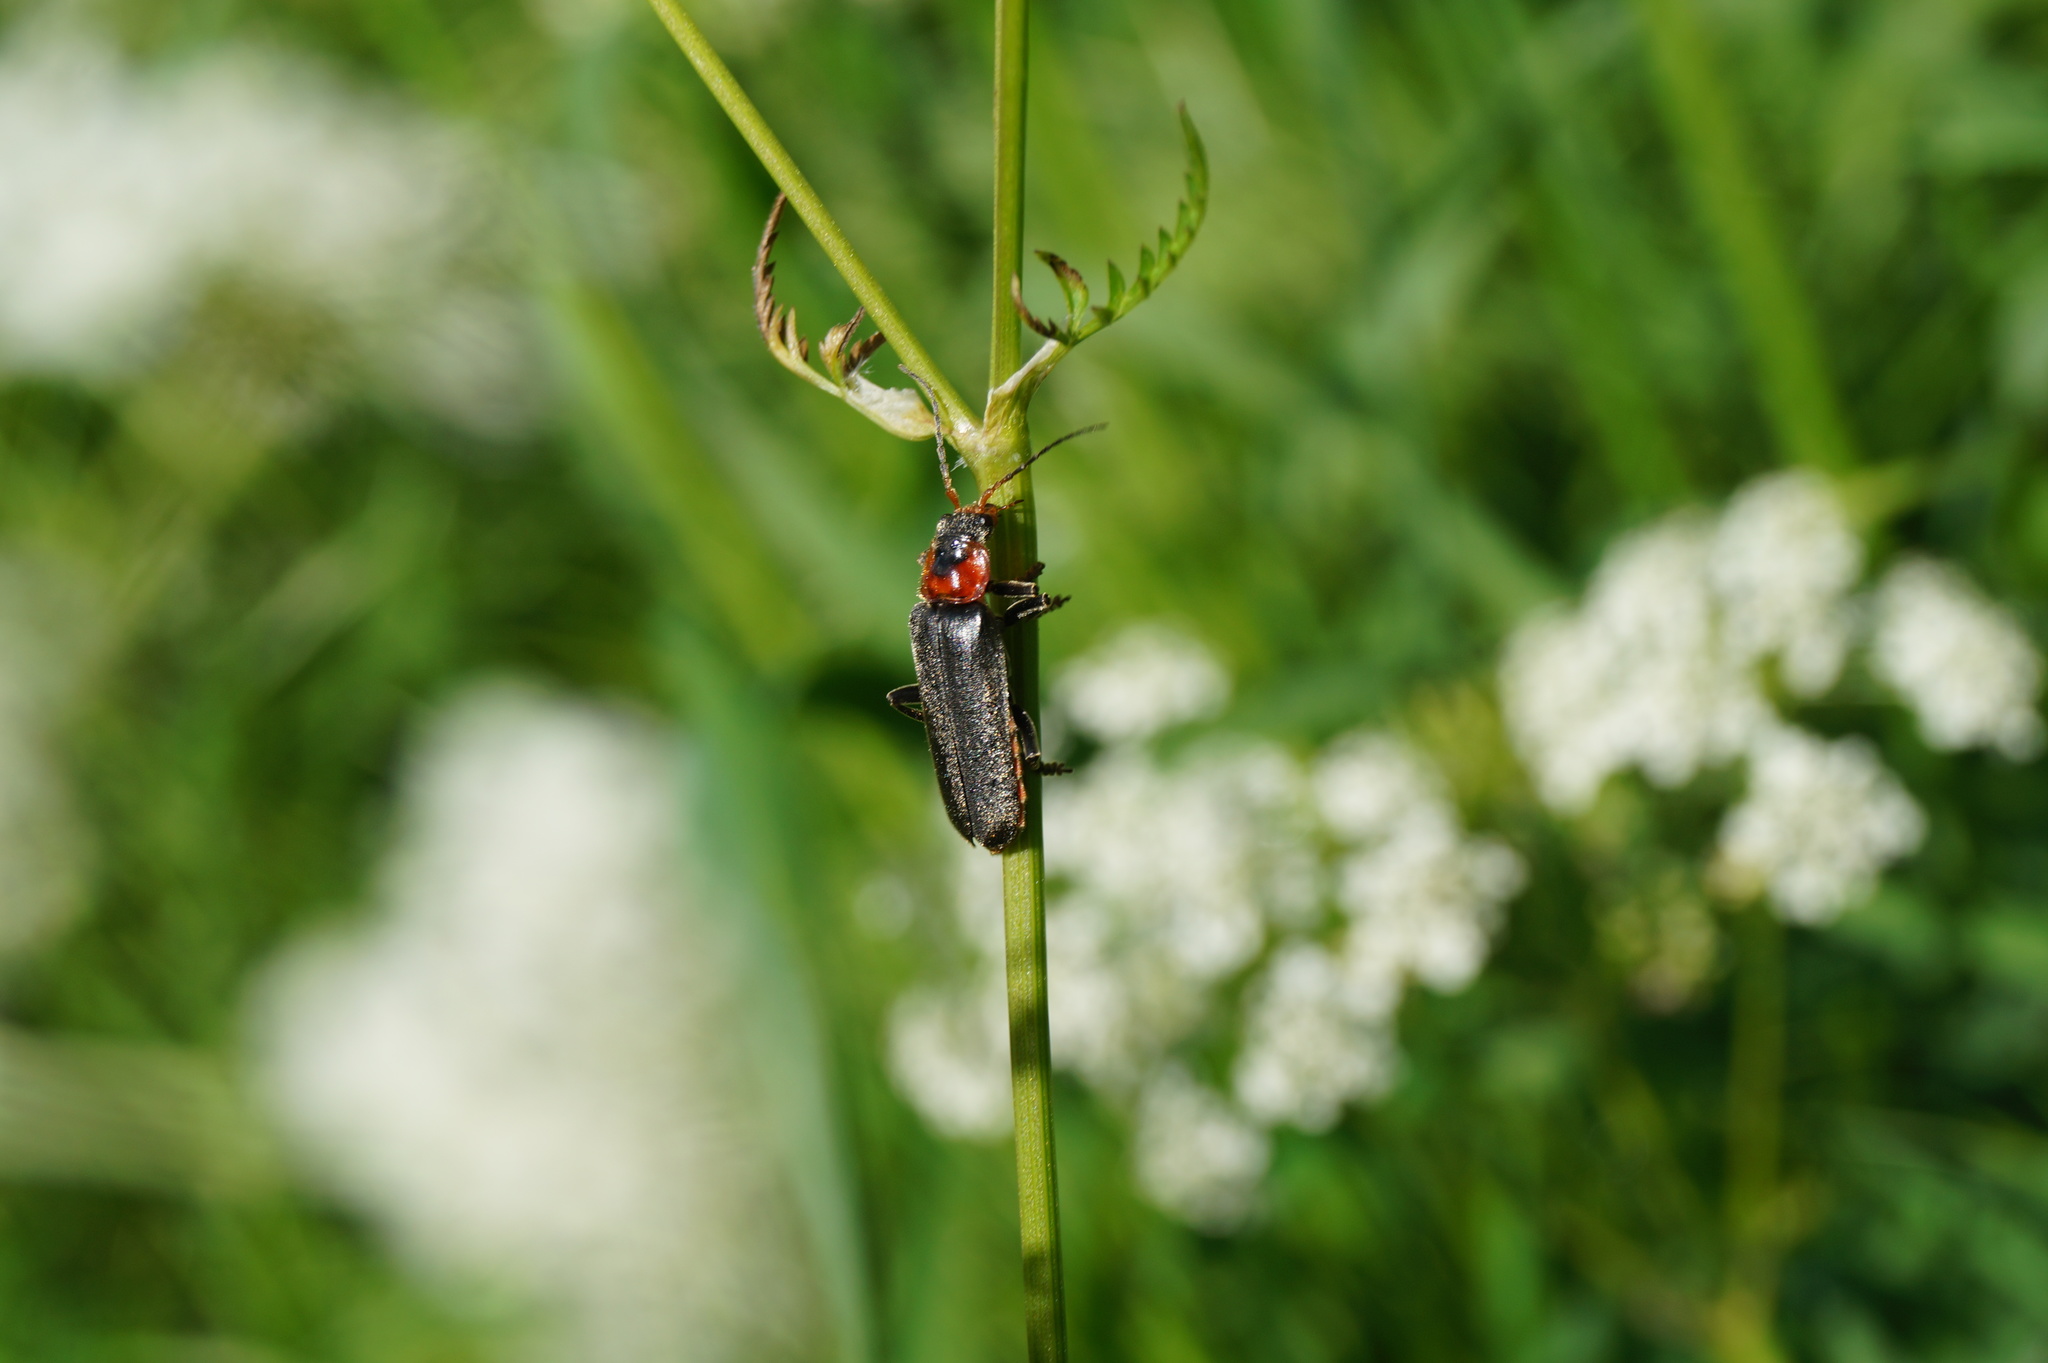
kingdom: Animalia
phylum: Arthropoda
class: Insecta
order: Coleoptera
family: Cantharidae
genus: Cantharis
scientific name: Cantharis fusca
